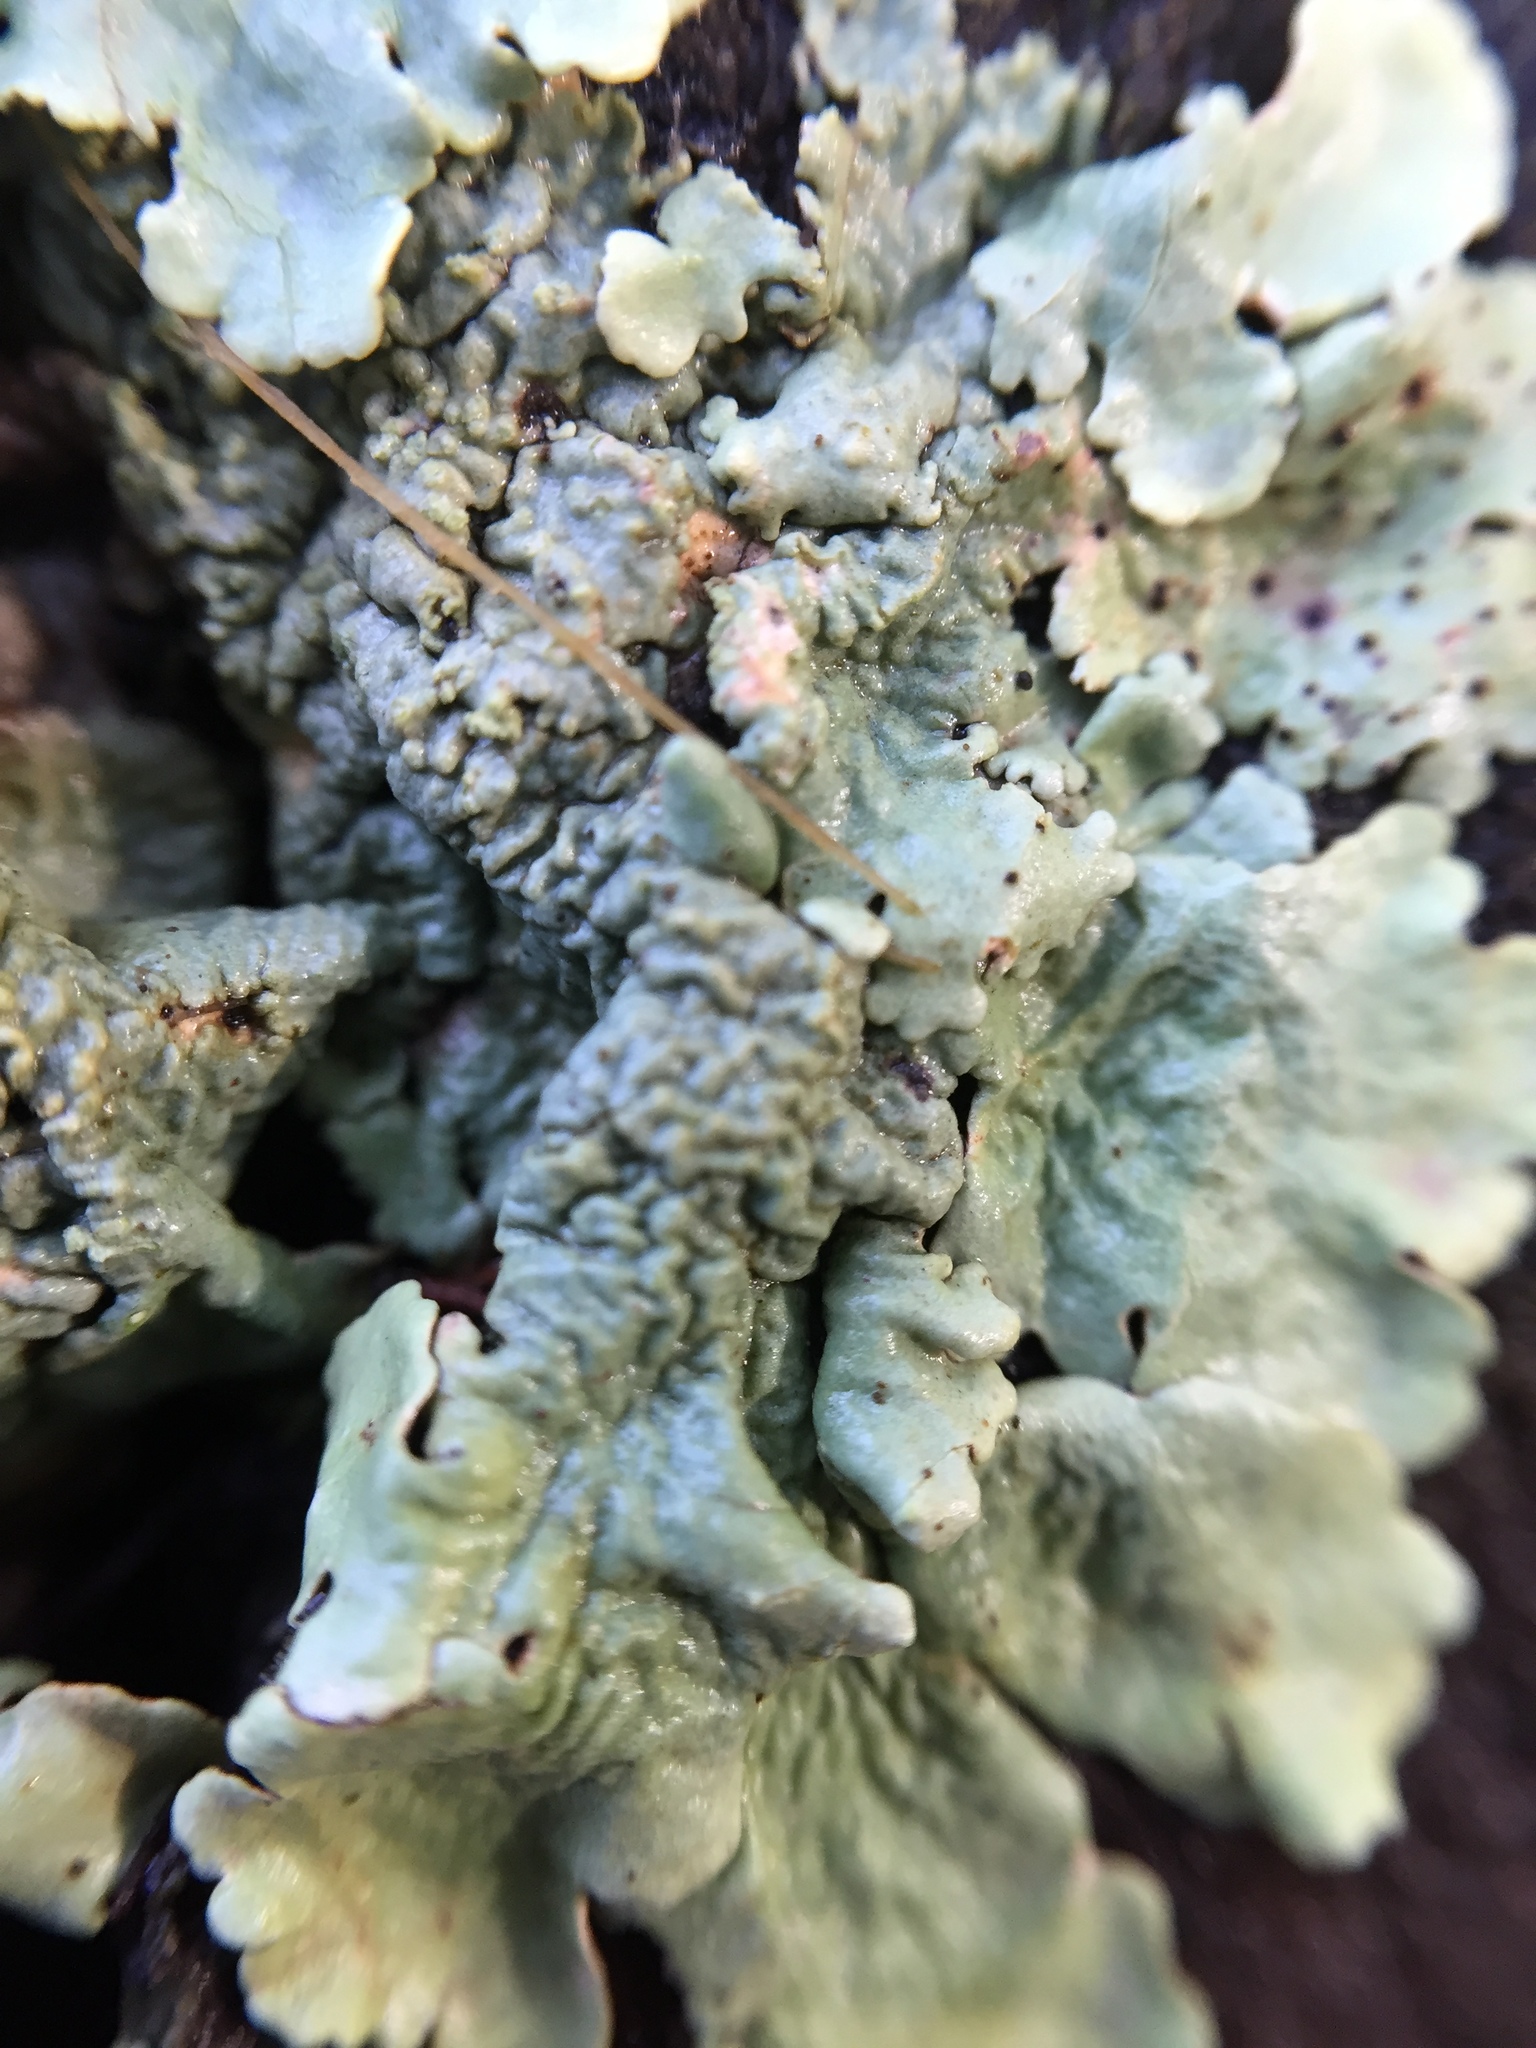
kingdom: Fungi
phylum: Ascomycota
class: Lecanoromycetes
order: Lecanorales
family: Parmeliaceae
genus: Flavoparmelia
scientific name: Flavoparmelia caperata
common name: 40-mile per hour lichen
